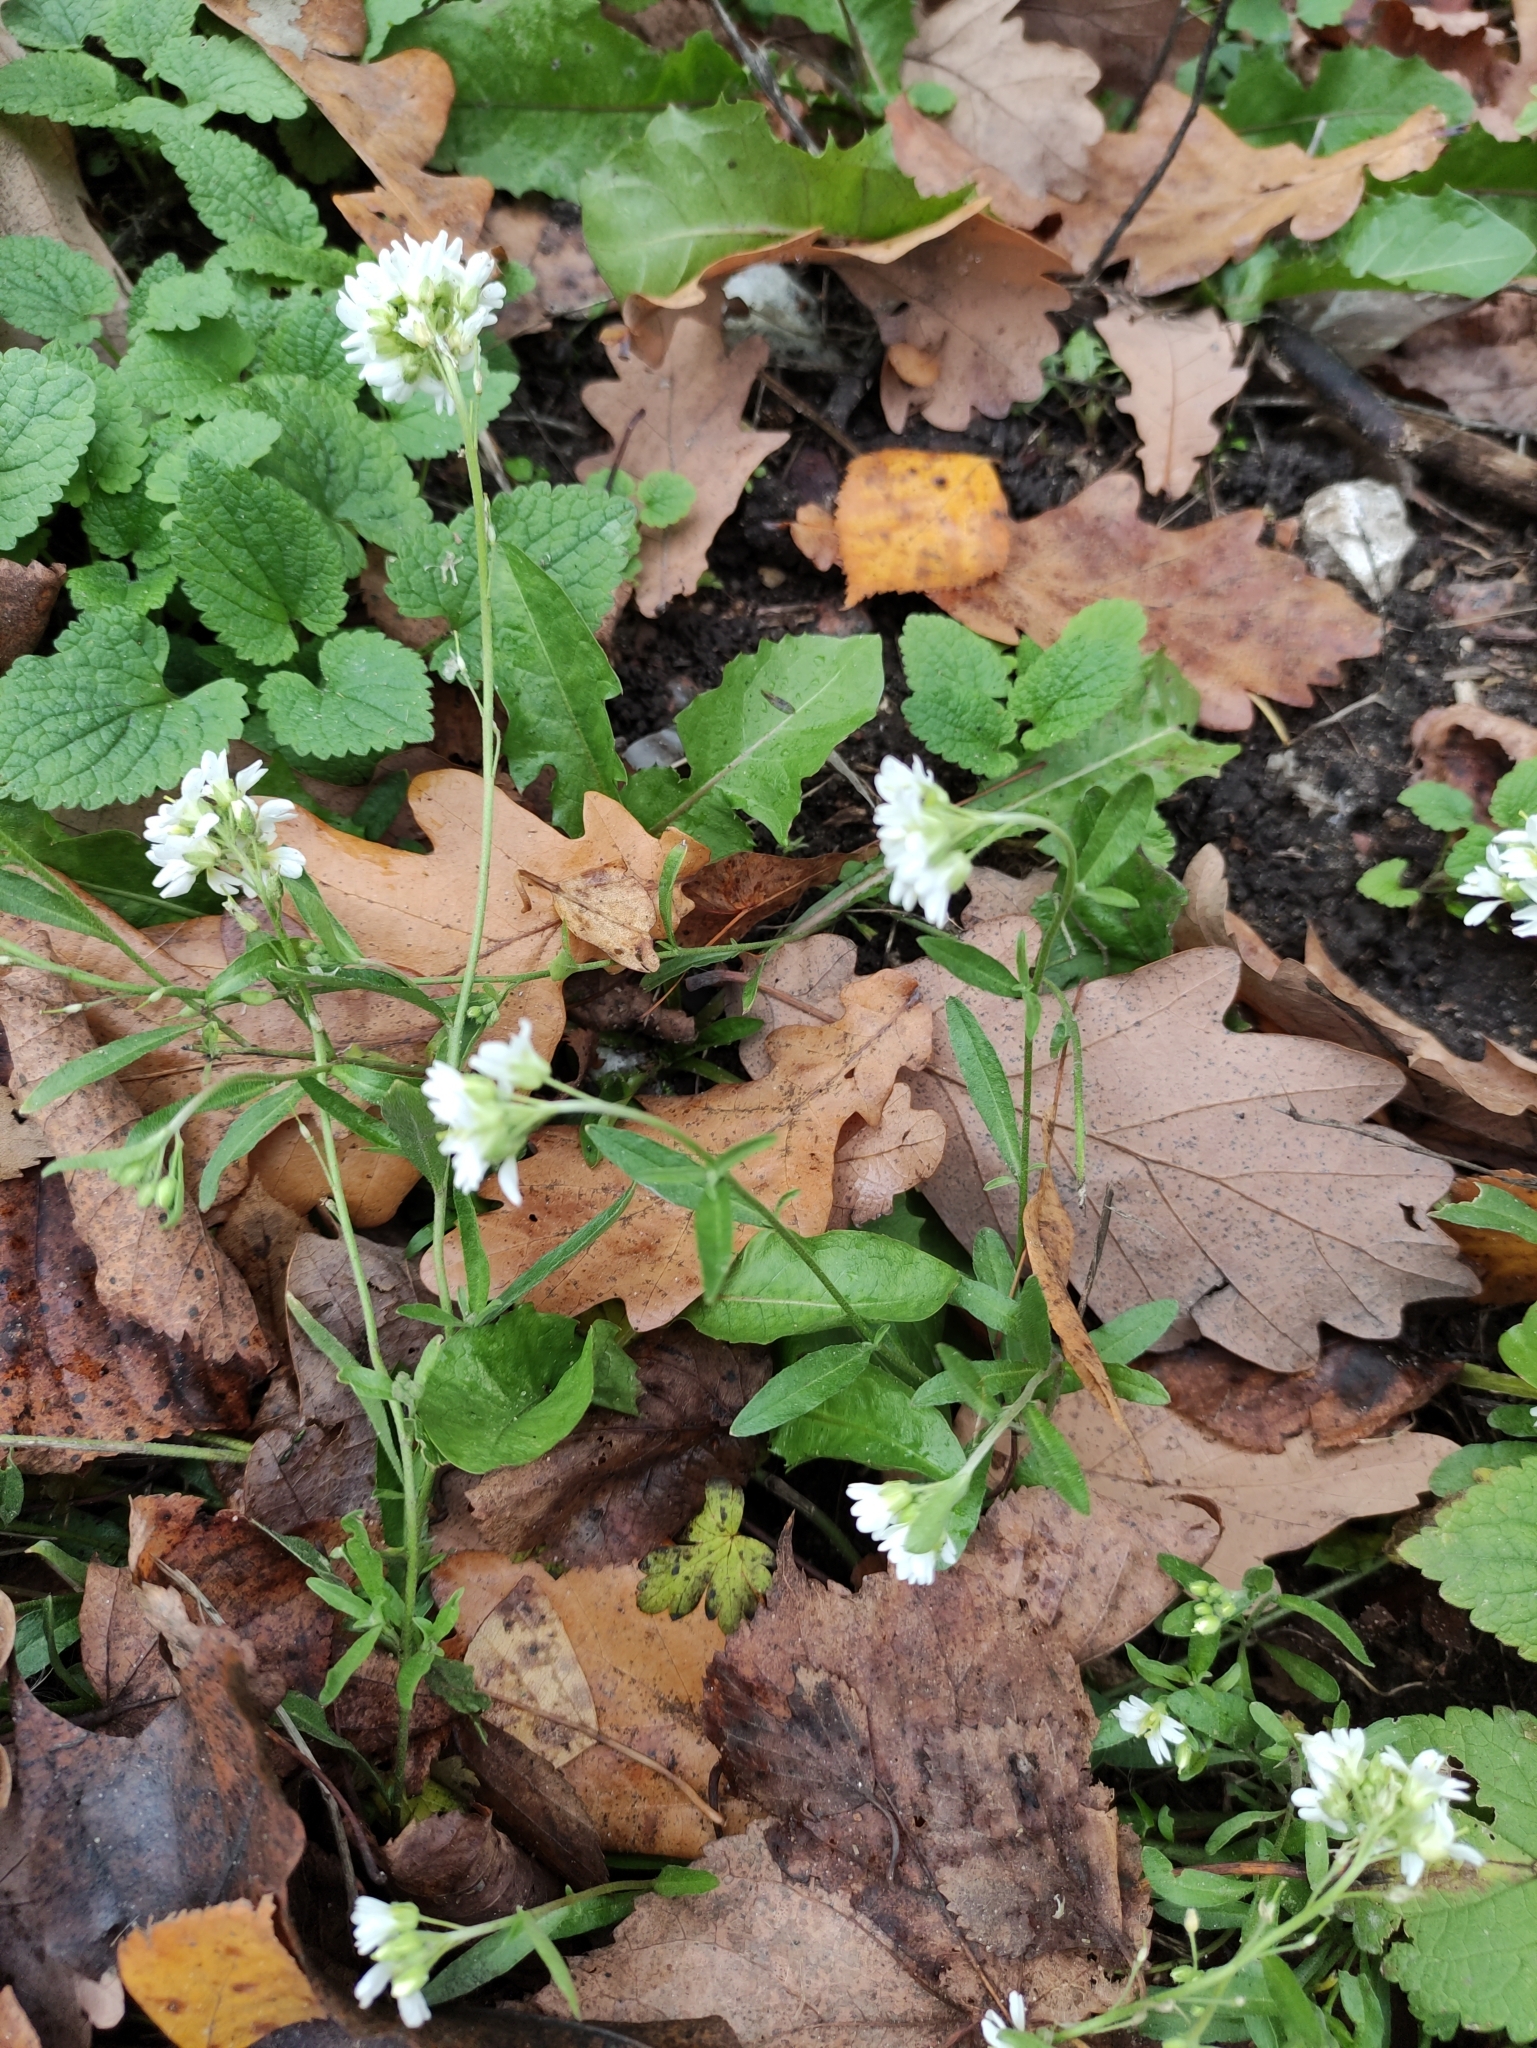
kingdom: Plantae
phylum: Tracheophyta
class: Magnoliopsida
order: Brassicales
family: Brassicaceae
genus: Berteroa
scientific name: Berteroa incana
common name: Hoary alison
